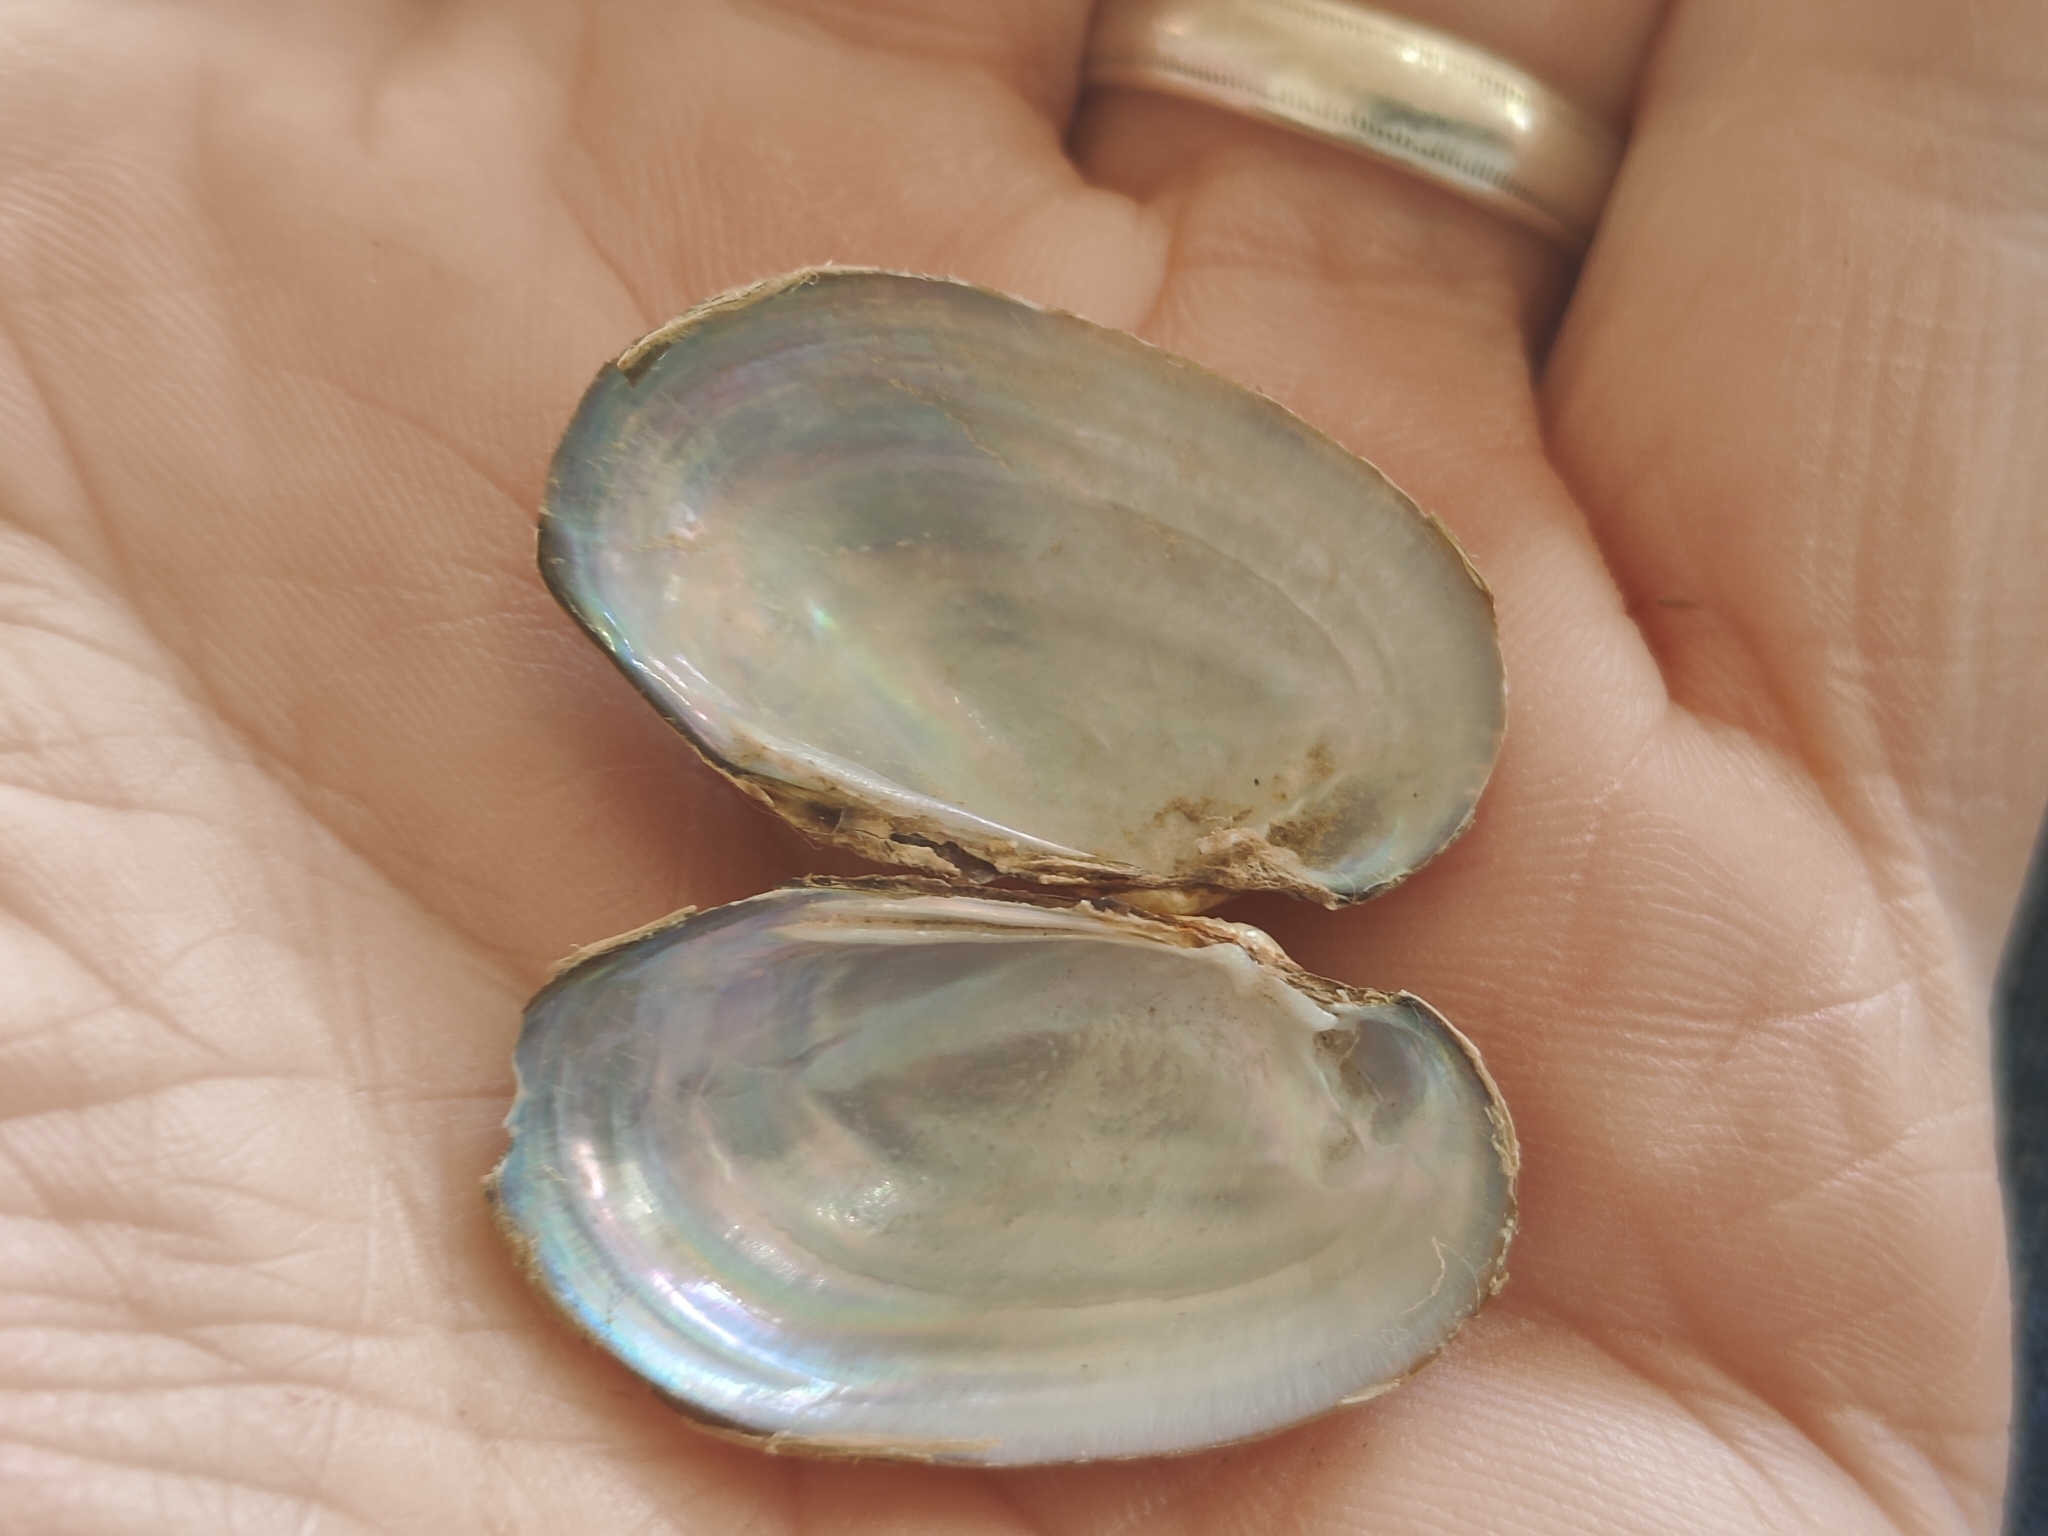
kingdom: Animalia
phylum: Mollusca
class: Bivalvia
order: Unionida
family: Unionidae
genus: Toxolasma
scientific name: Toxolasma parvum
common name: Lilliput
